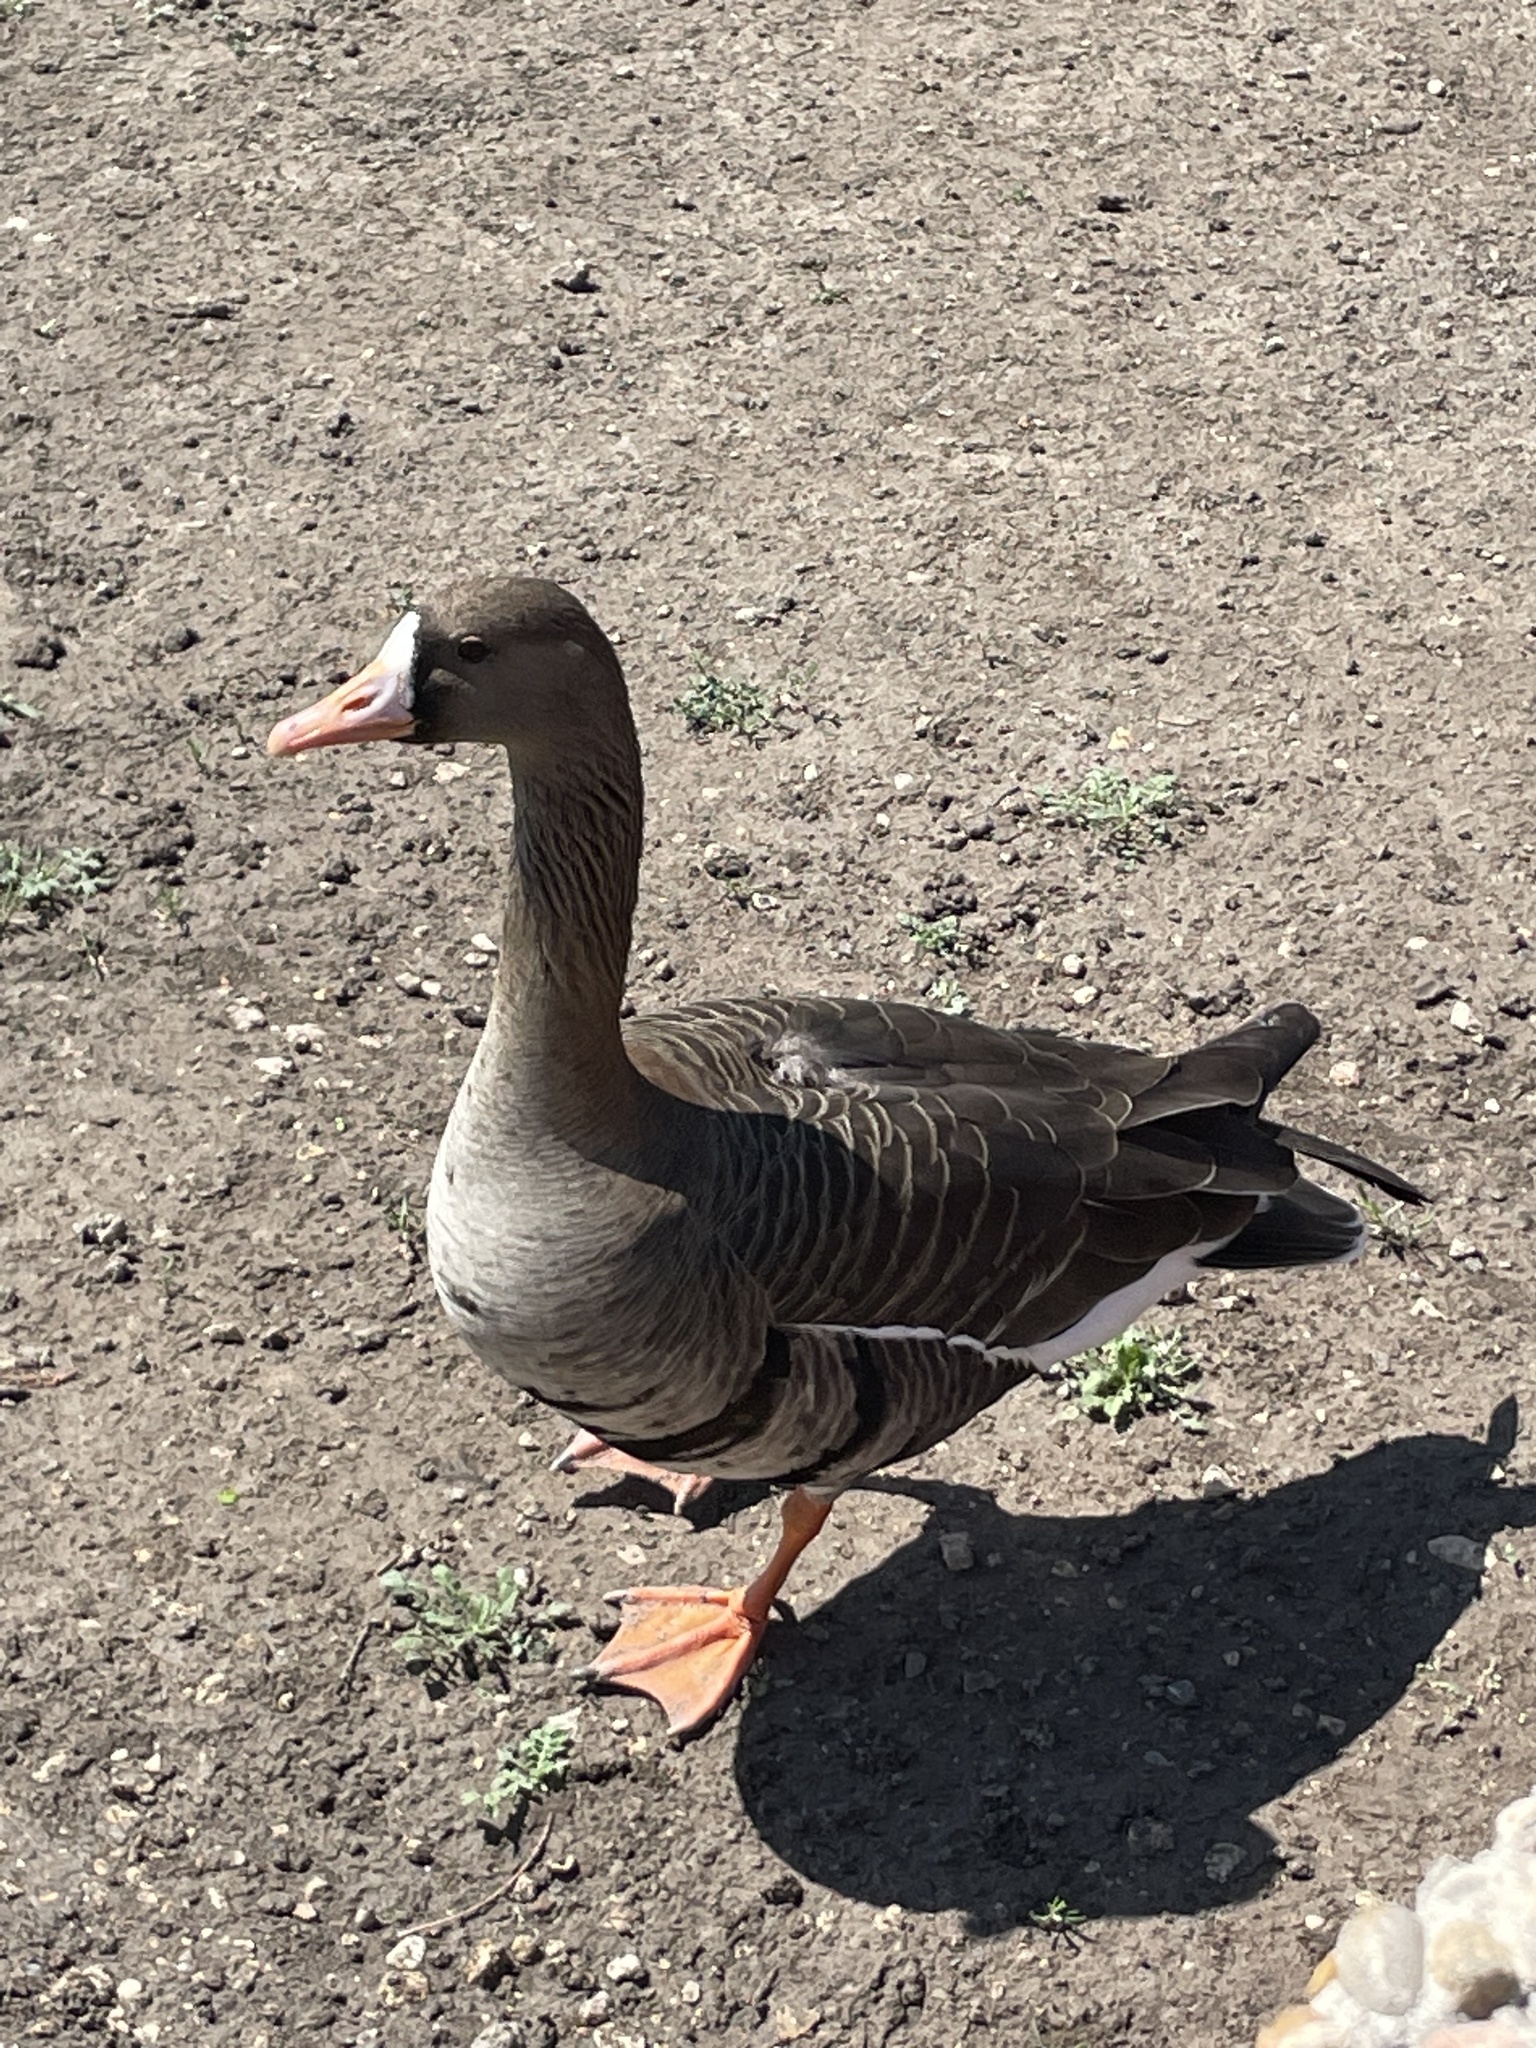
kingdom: Animalia
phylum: Chordata
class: Aves
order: Anseriformes
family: Anatidae
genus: Anser
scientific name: Anser albifrons
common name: Greater white-fronted goose
